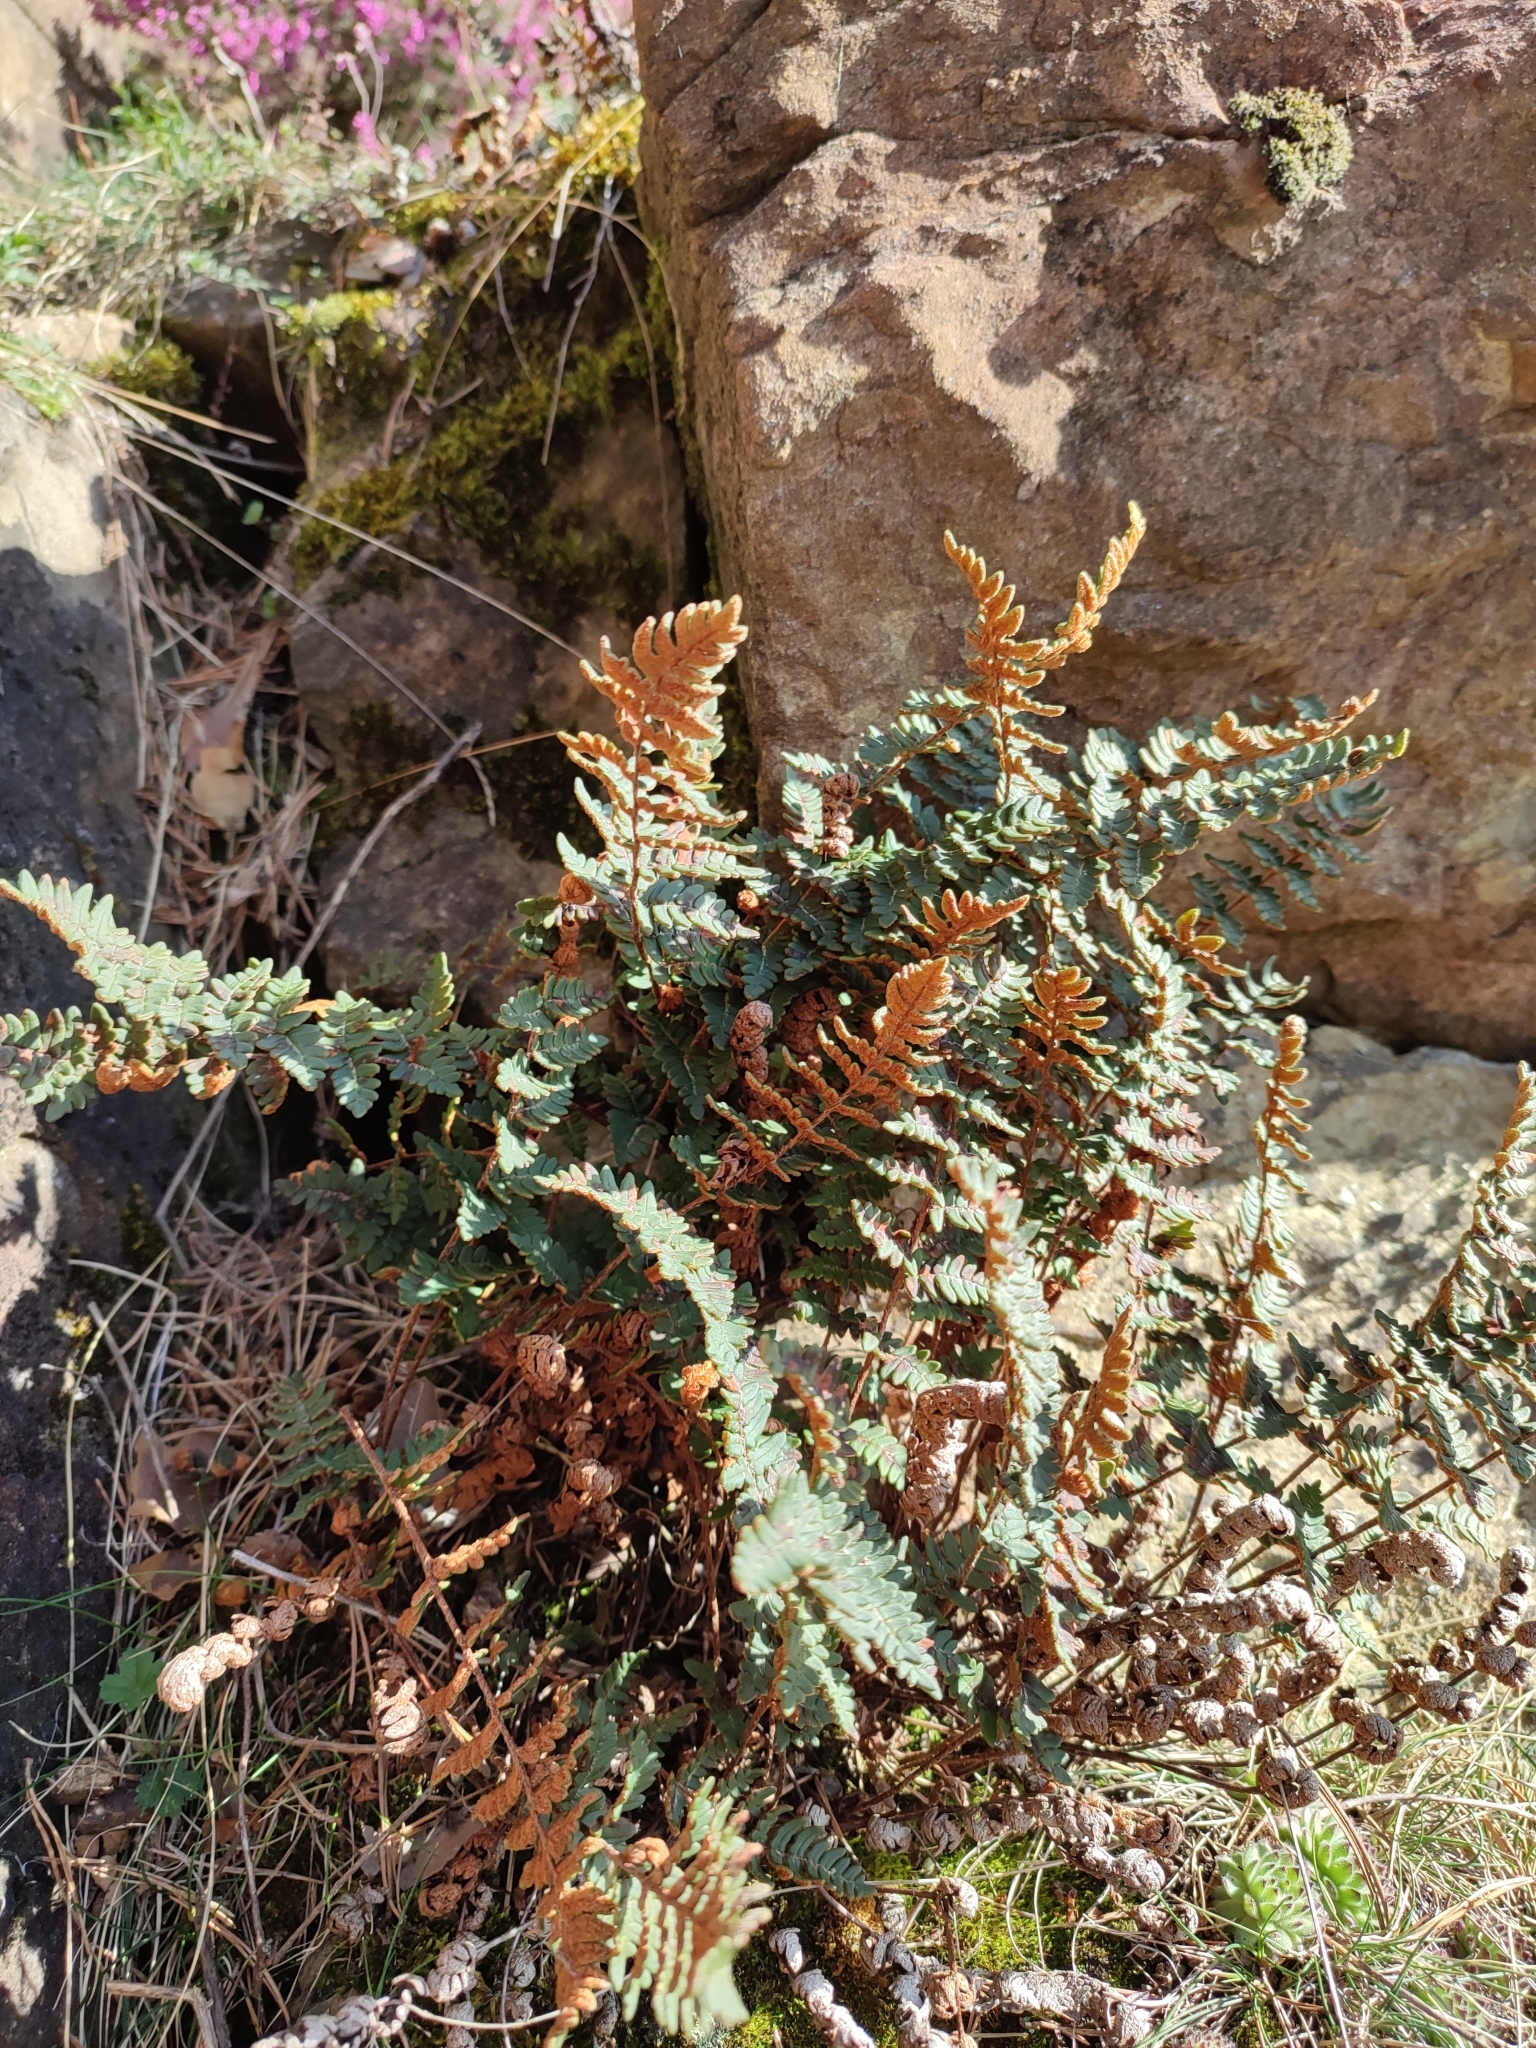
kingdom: Plantae
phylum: Tracheophyta
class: Polypodiopsida
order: Polypodiales
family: Pteridaceae
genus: Paragymnopteris
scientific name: Paragymnopteris marantae
